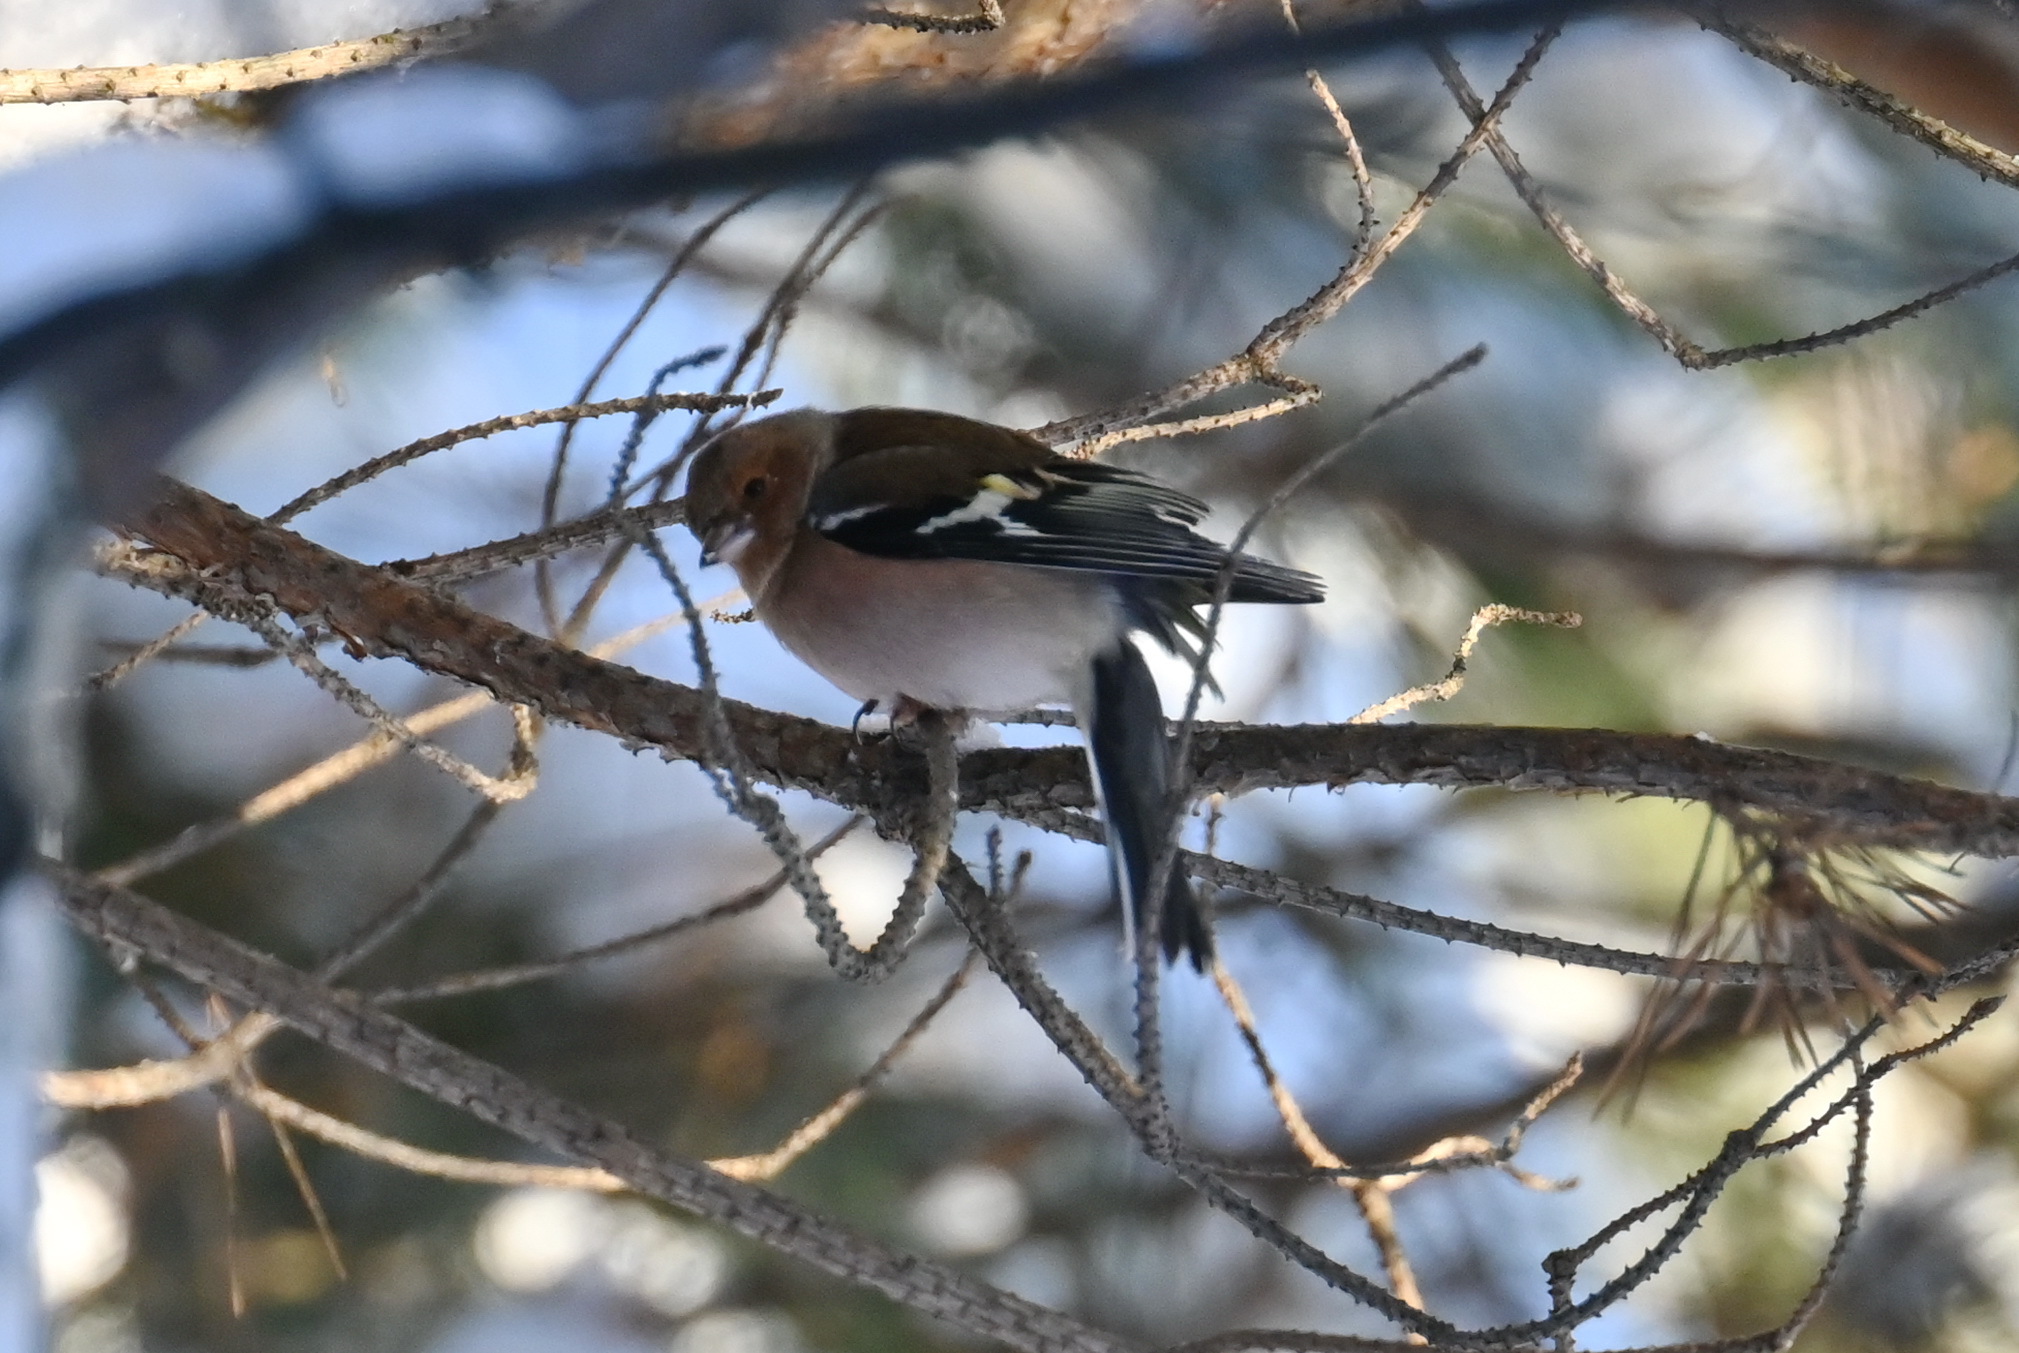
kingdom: Animalia
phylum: Chordata
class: Aves
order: Passeriformes
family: Fringillidae
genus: Fringilla
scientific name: Fringilla coelebs
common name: Common chaffinch
